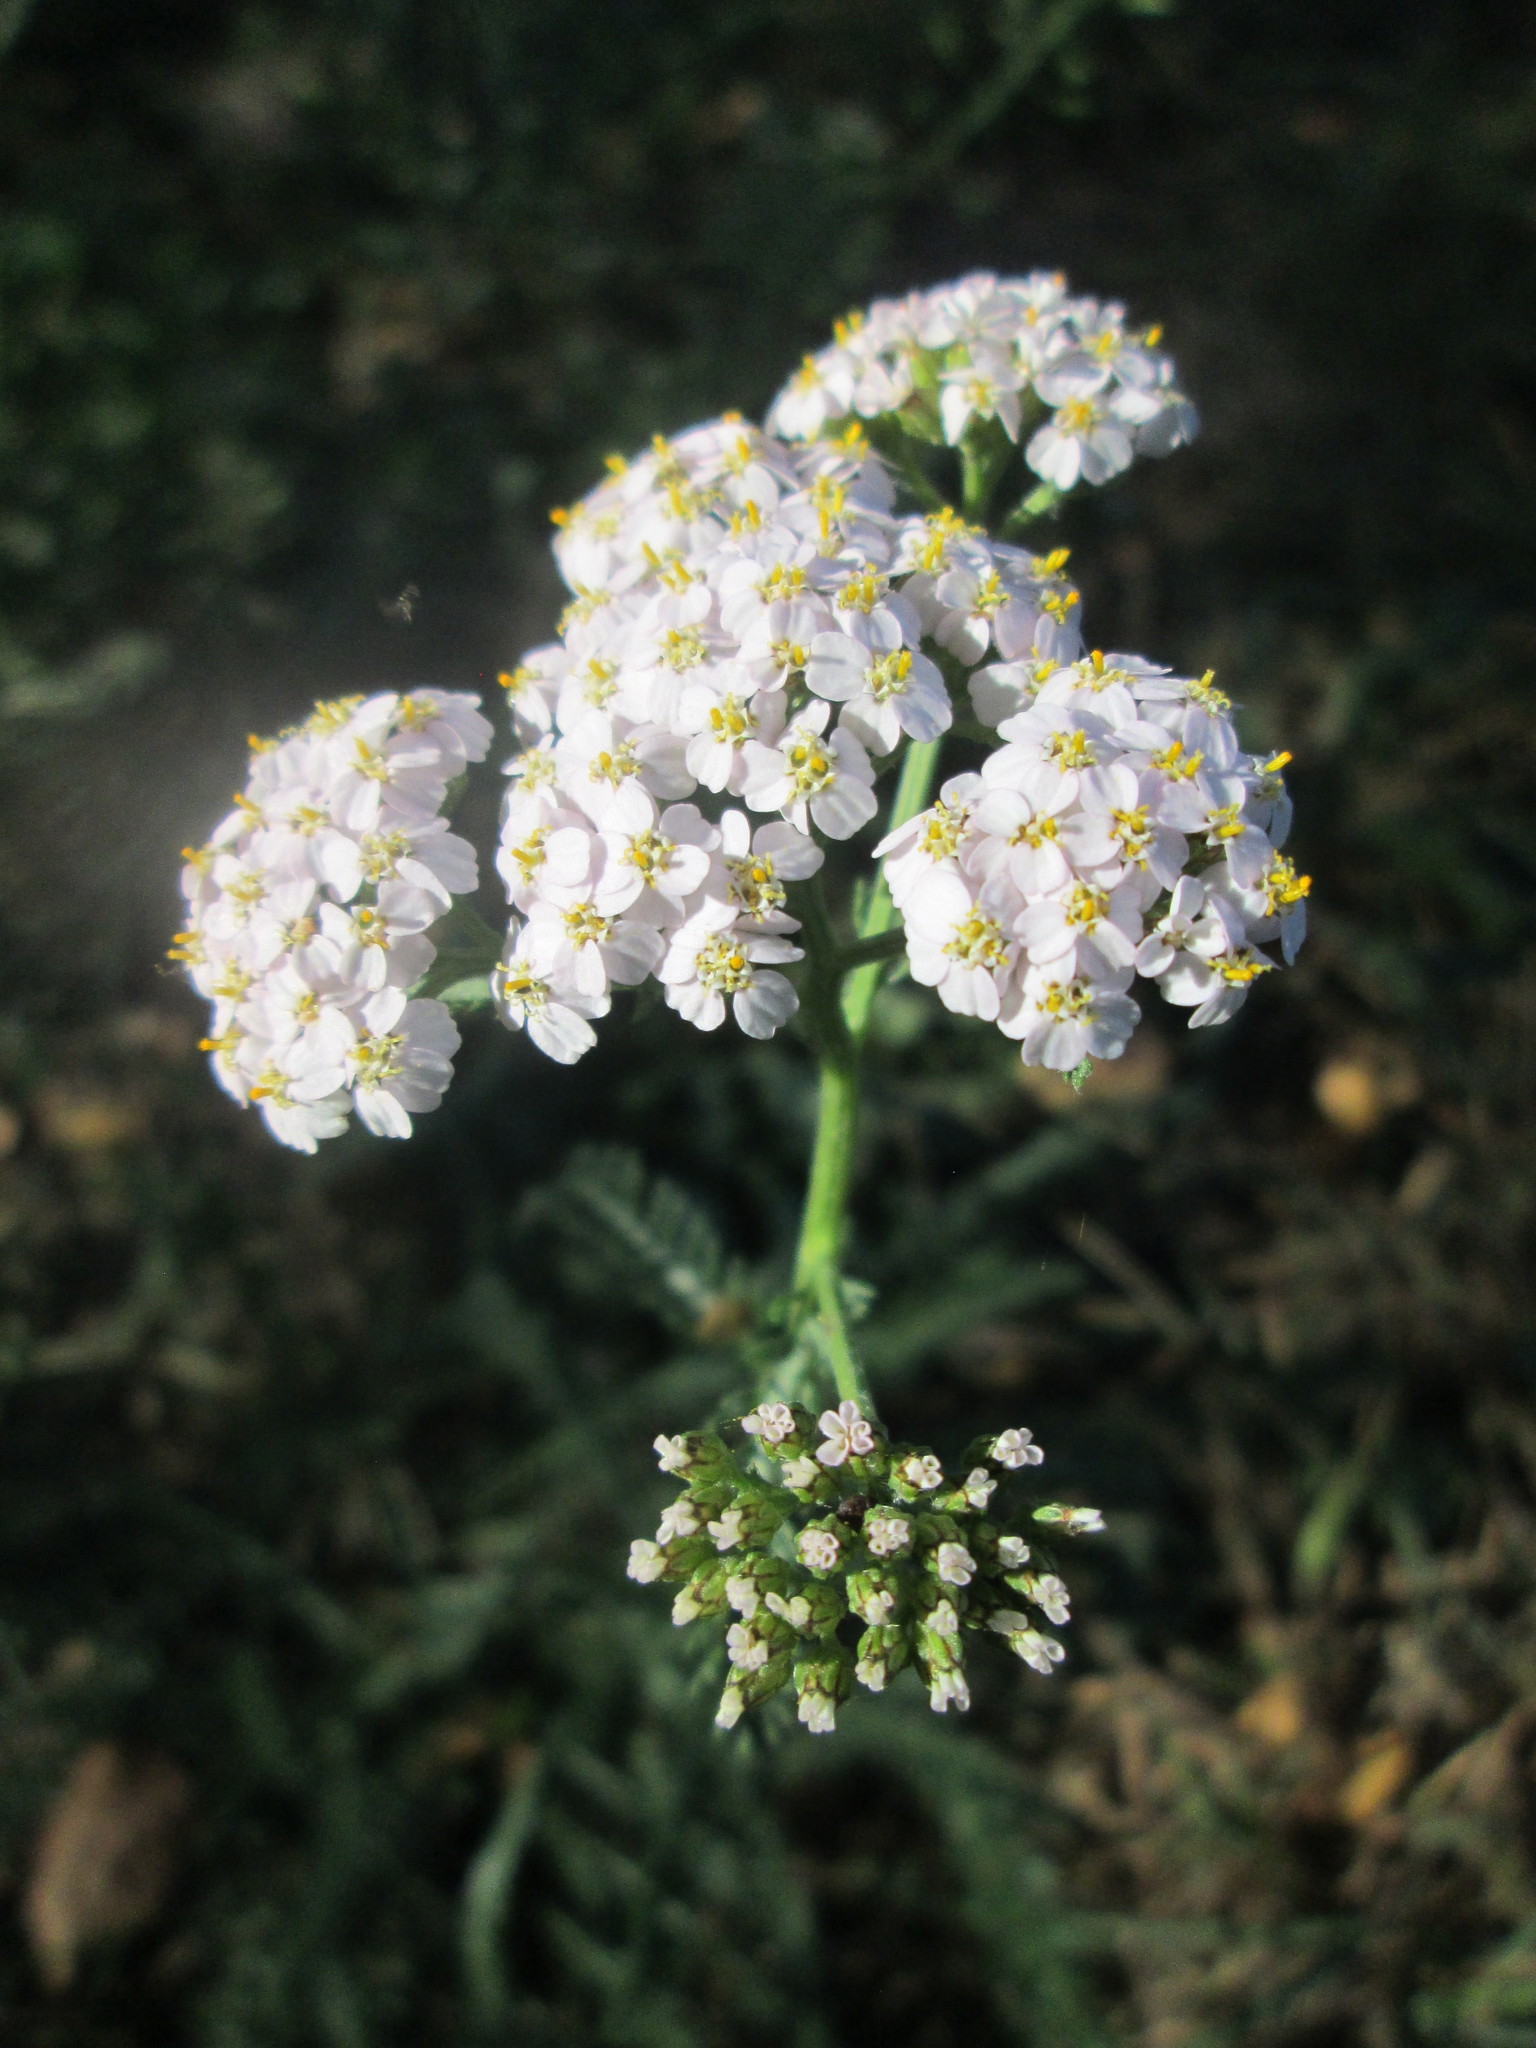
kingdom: Plantae
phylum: Tracheophyta
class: Magnoliopsida
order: Asterales
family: Asteraceae
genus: Achillea
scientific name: Achillea millefolium
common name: Yarrow
